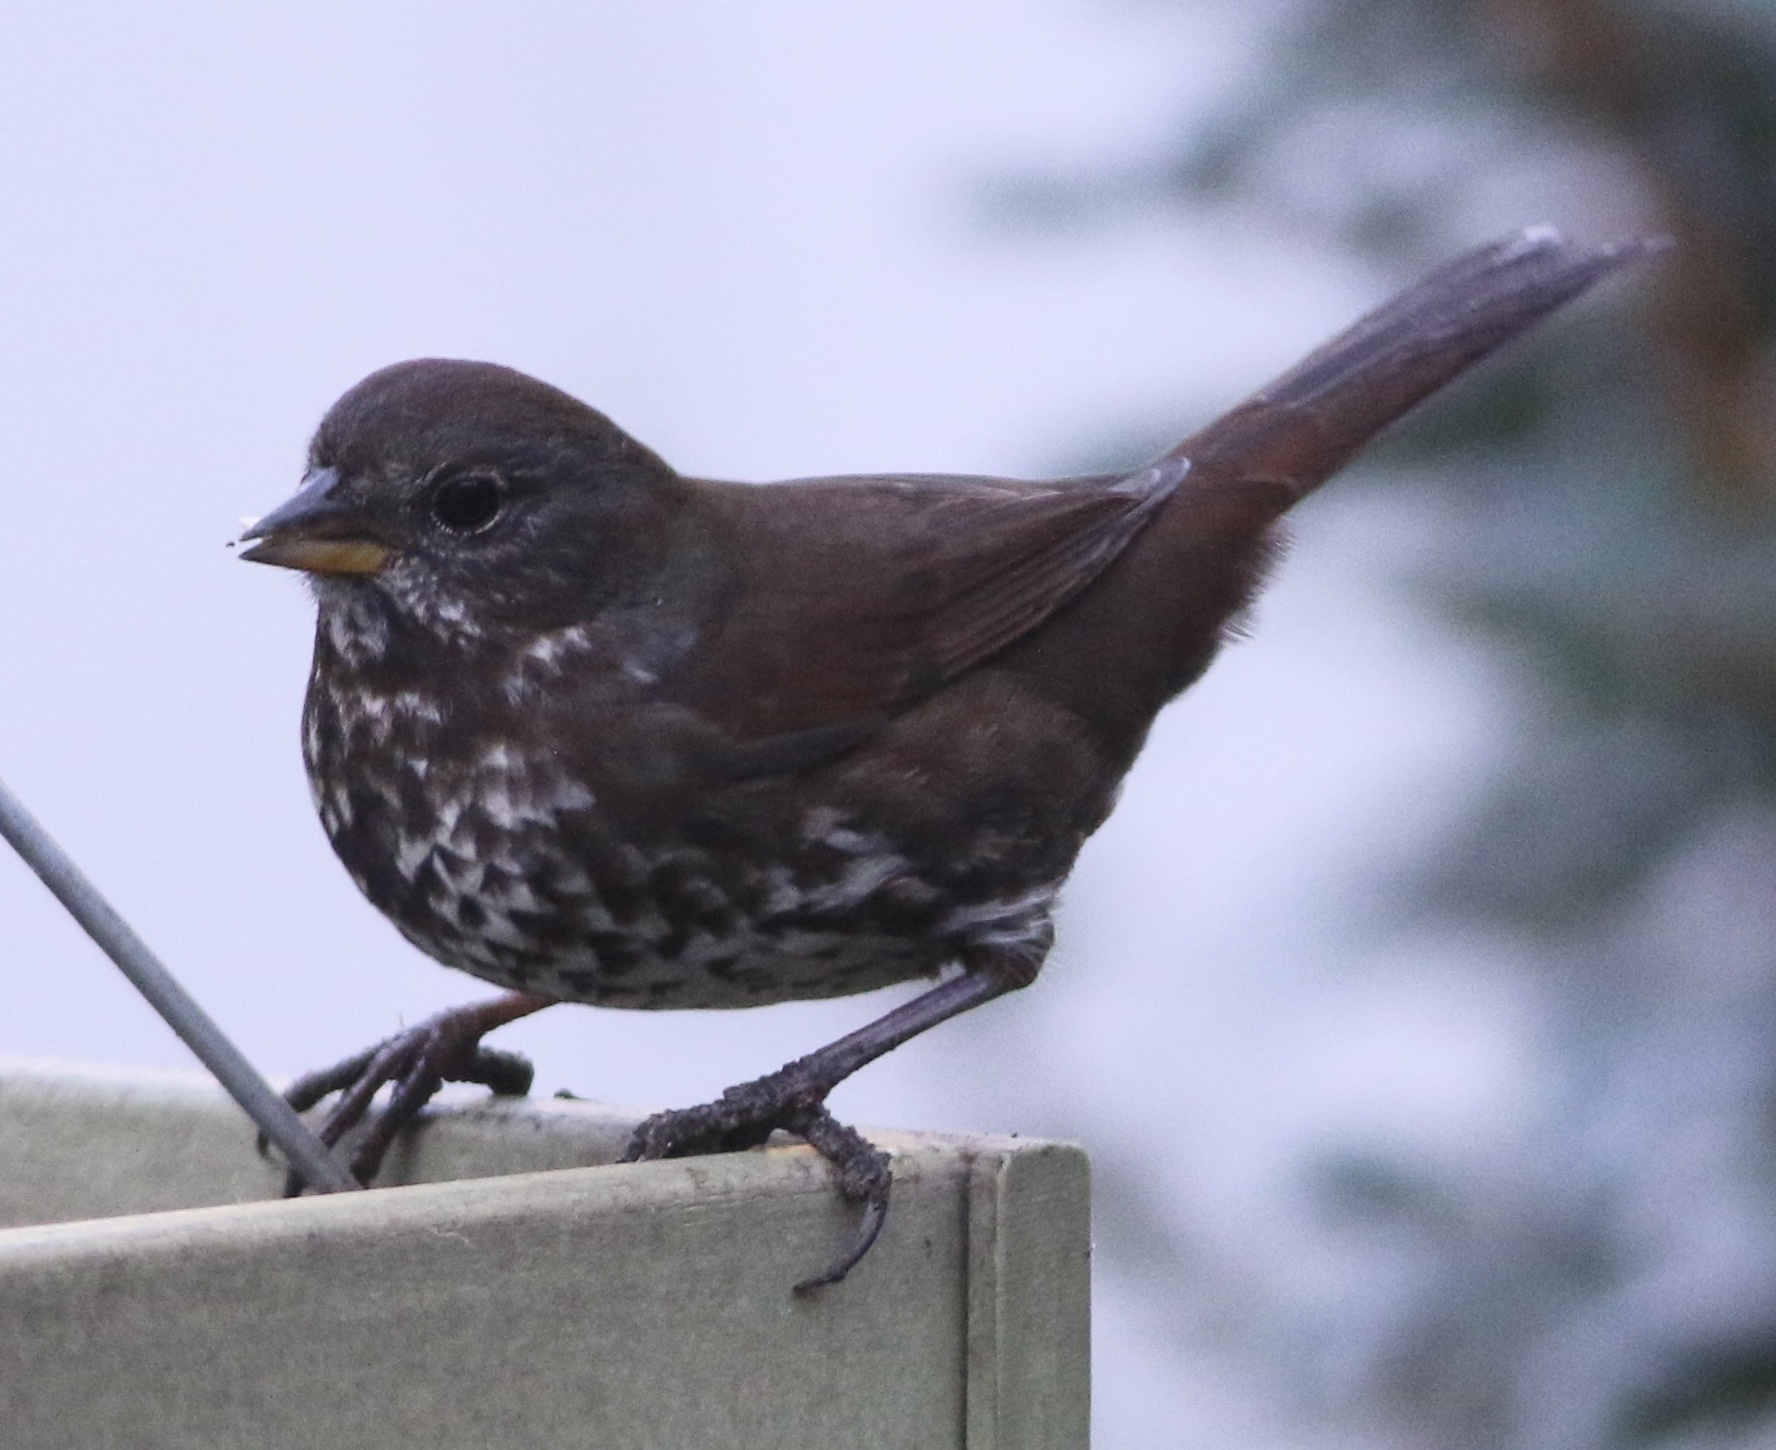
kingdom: Animalia
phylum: Chordata
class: Aves
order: Passeriformes
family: Passerellidae
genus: Passerella
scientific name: Passerella iliaca
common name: Fox sparrow
